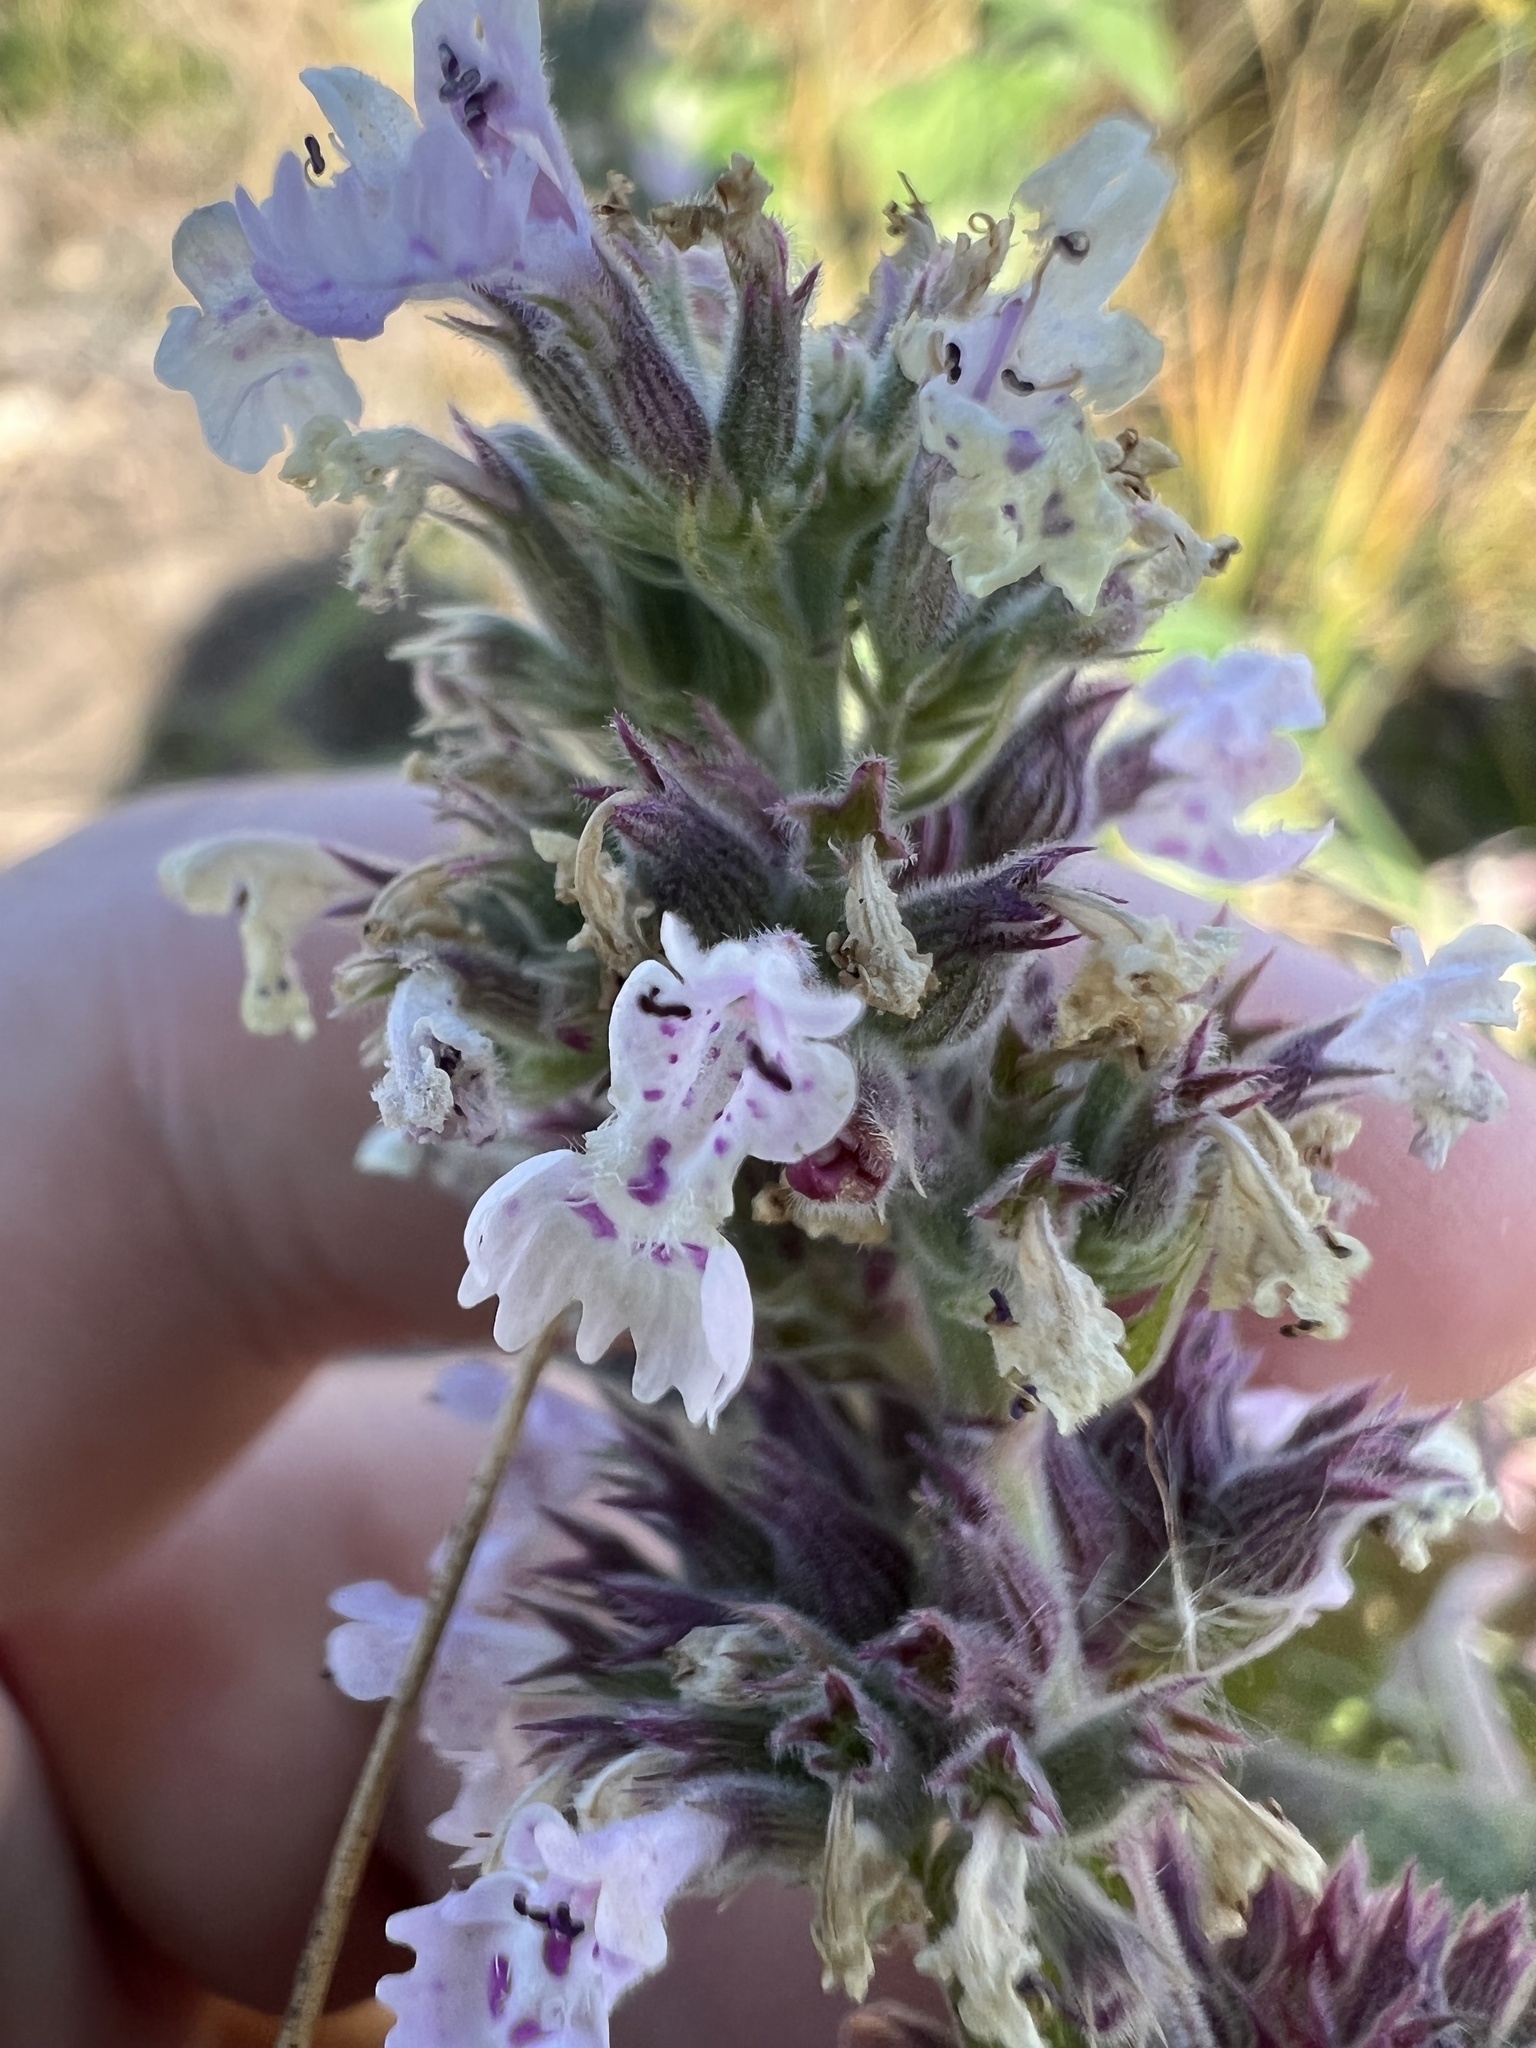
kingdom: Plantae
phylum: Tracheophyta
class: Magnoliopsida
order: Lamiales
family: Lamiaceae
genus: Nepeta
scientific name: Nepeta cataria
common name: Catnip
